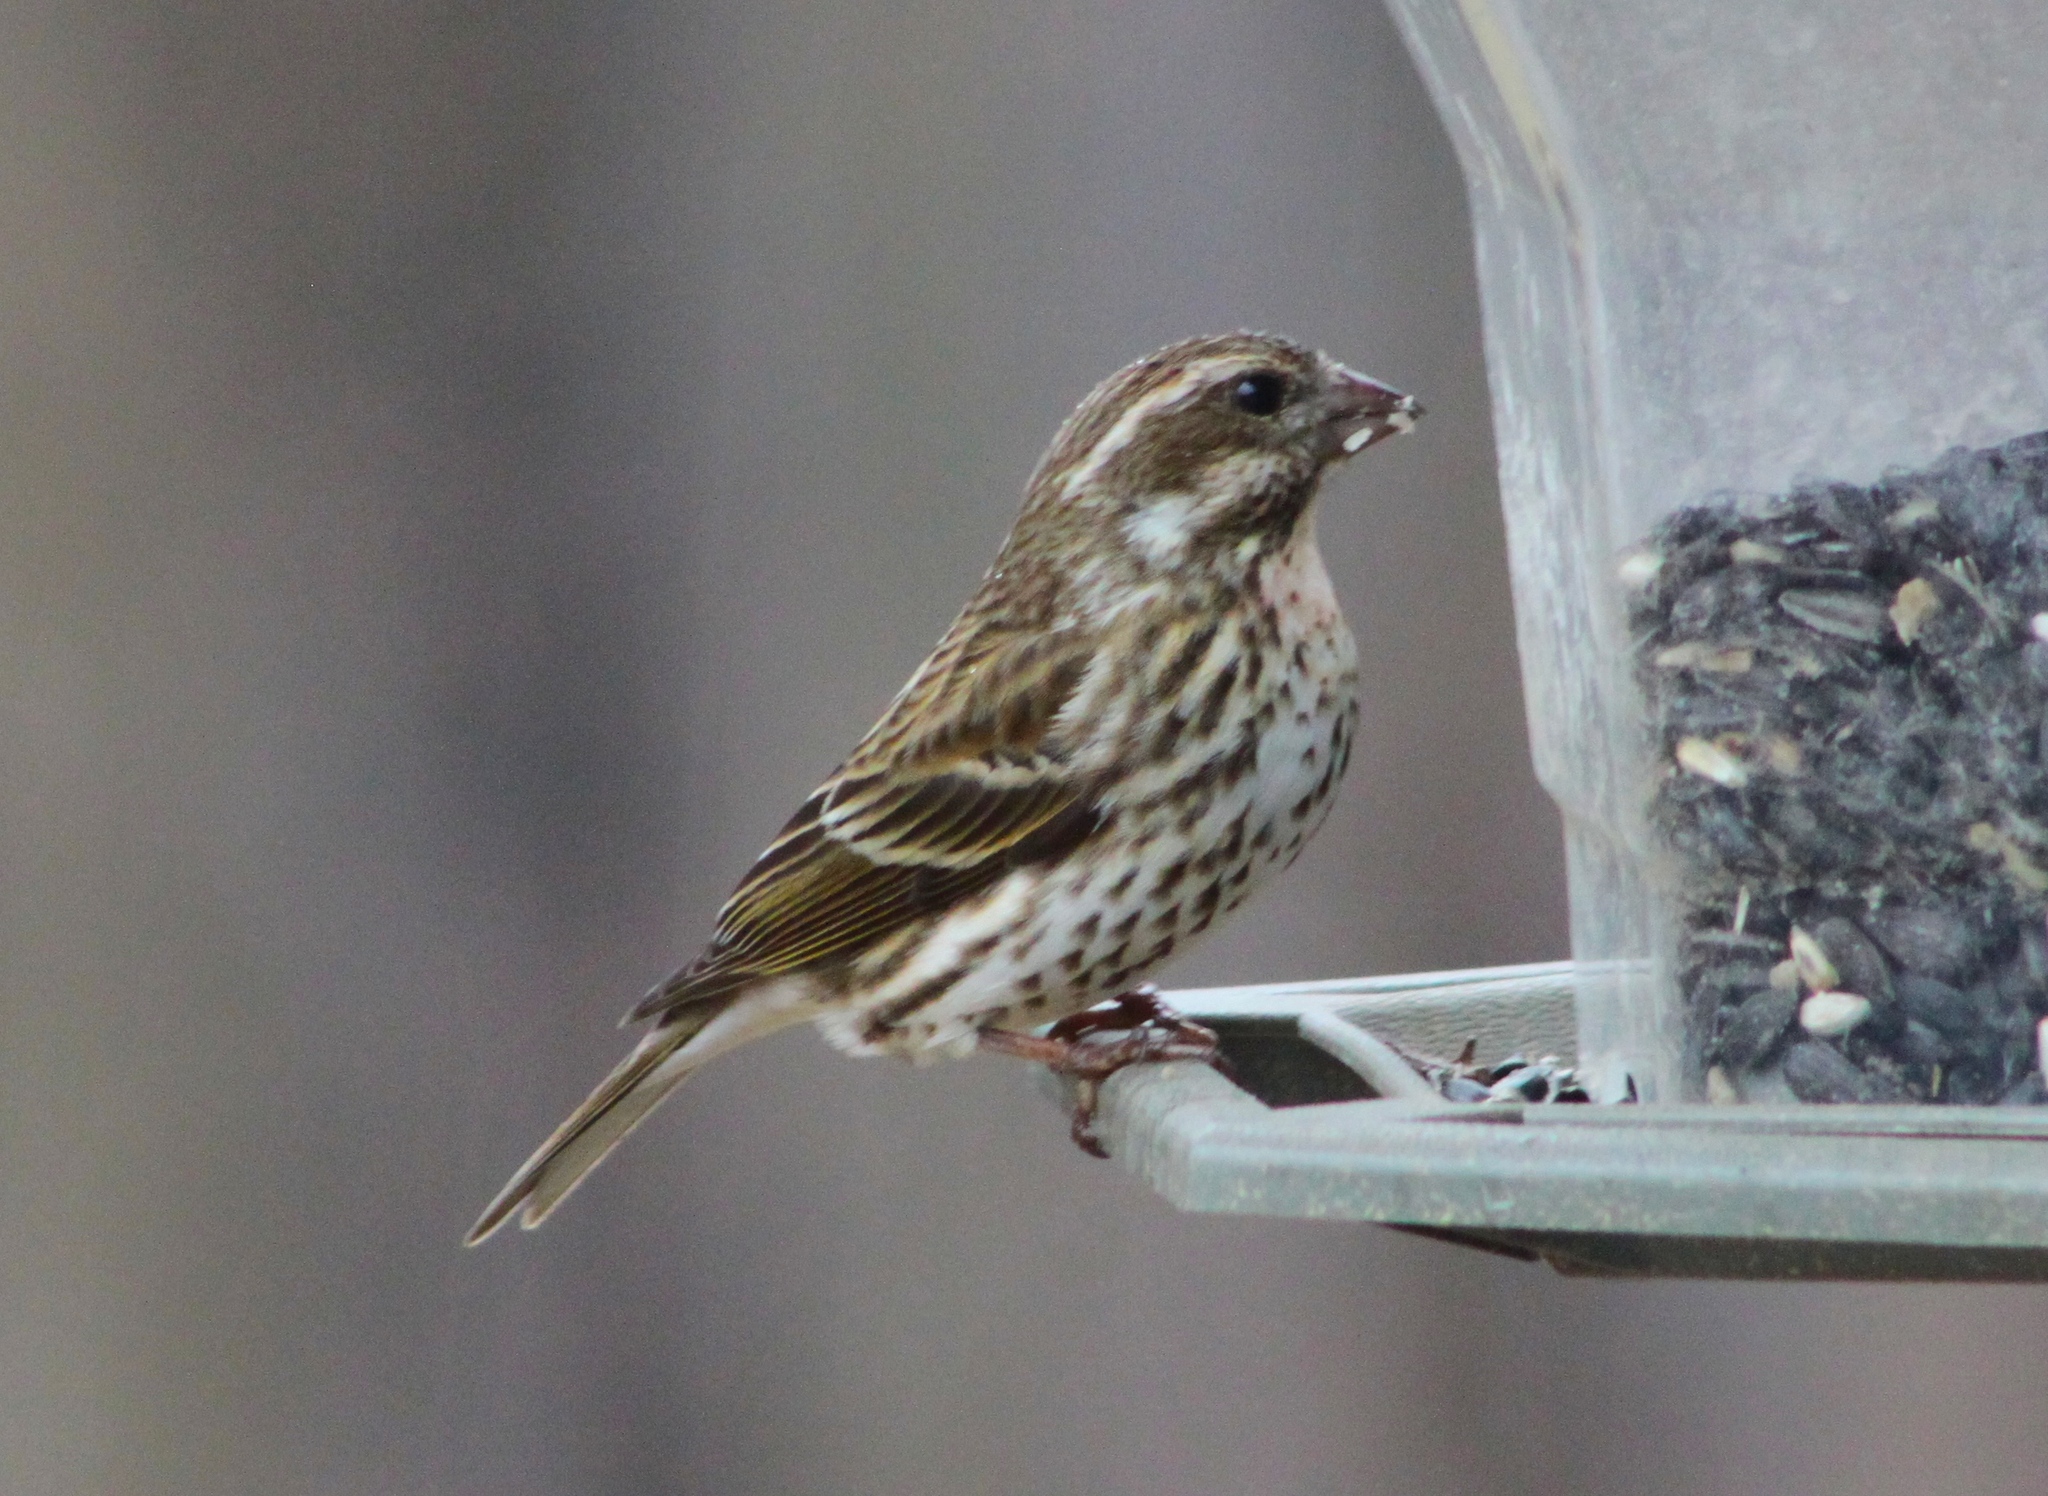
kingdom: Animalia
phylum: Chordata
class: Aves
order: Passeriformes
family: Fringillidae
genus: Haemorhous
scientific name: Haemorhous purpureus
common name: Purple finch
